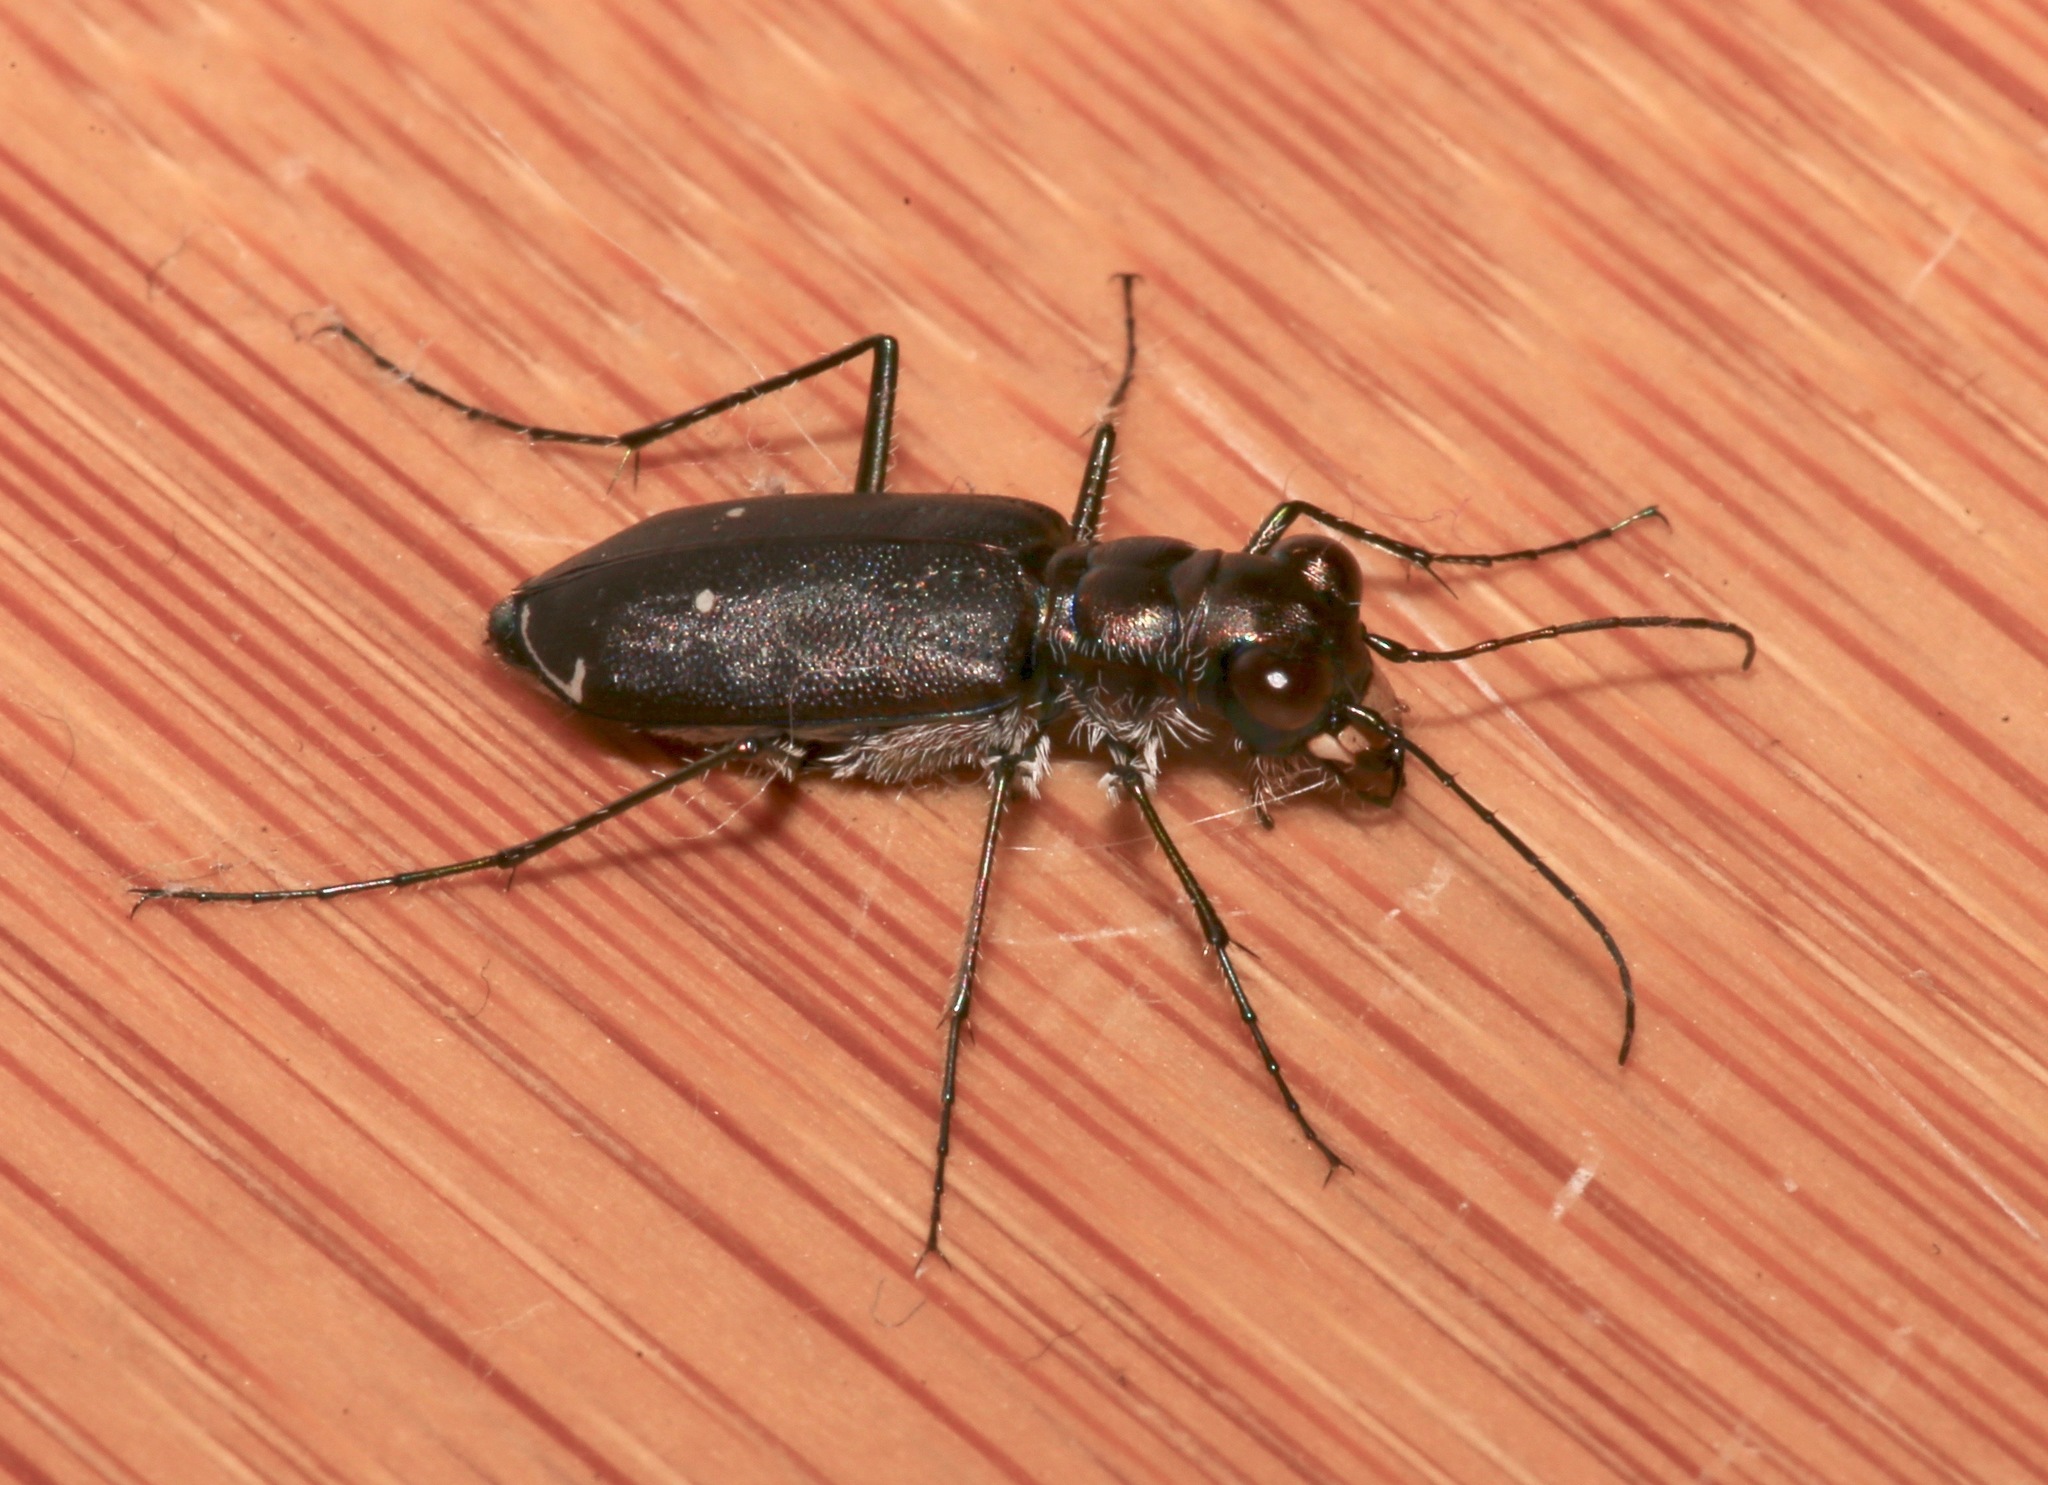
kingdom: Animalia
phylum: Arthropoda
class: Insecta
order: Coleoptera
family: Carabidae
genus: Cicindela
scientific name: Cicindela punctulata
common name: Punctured tiger beetle
